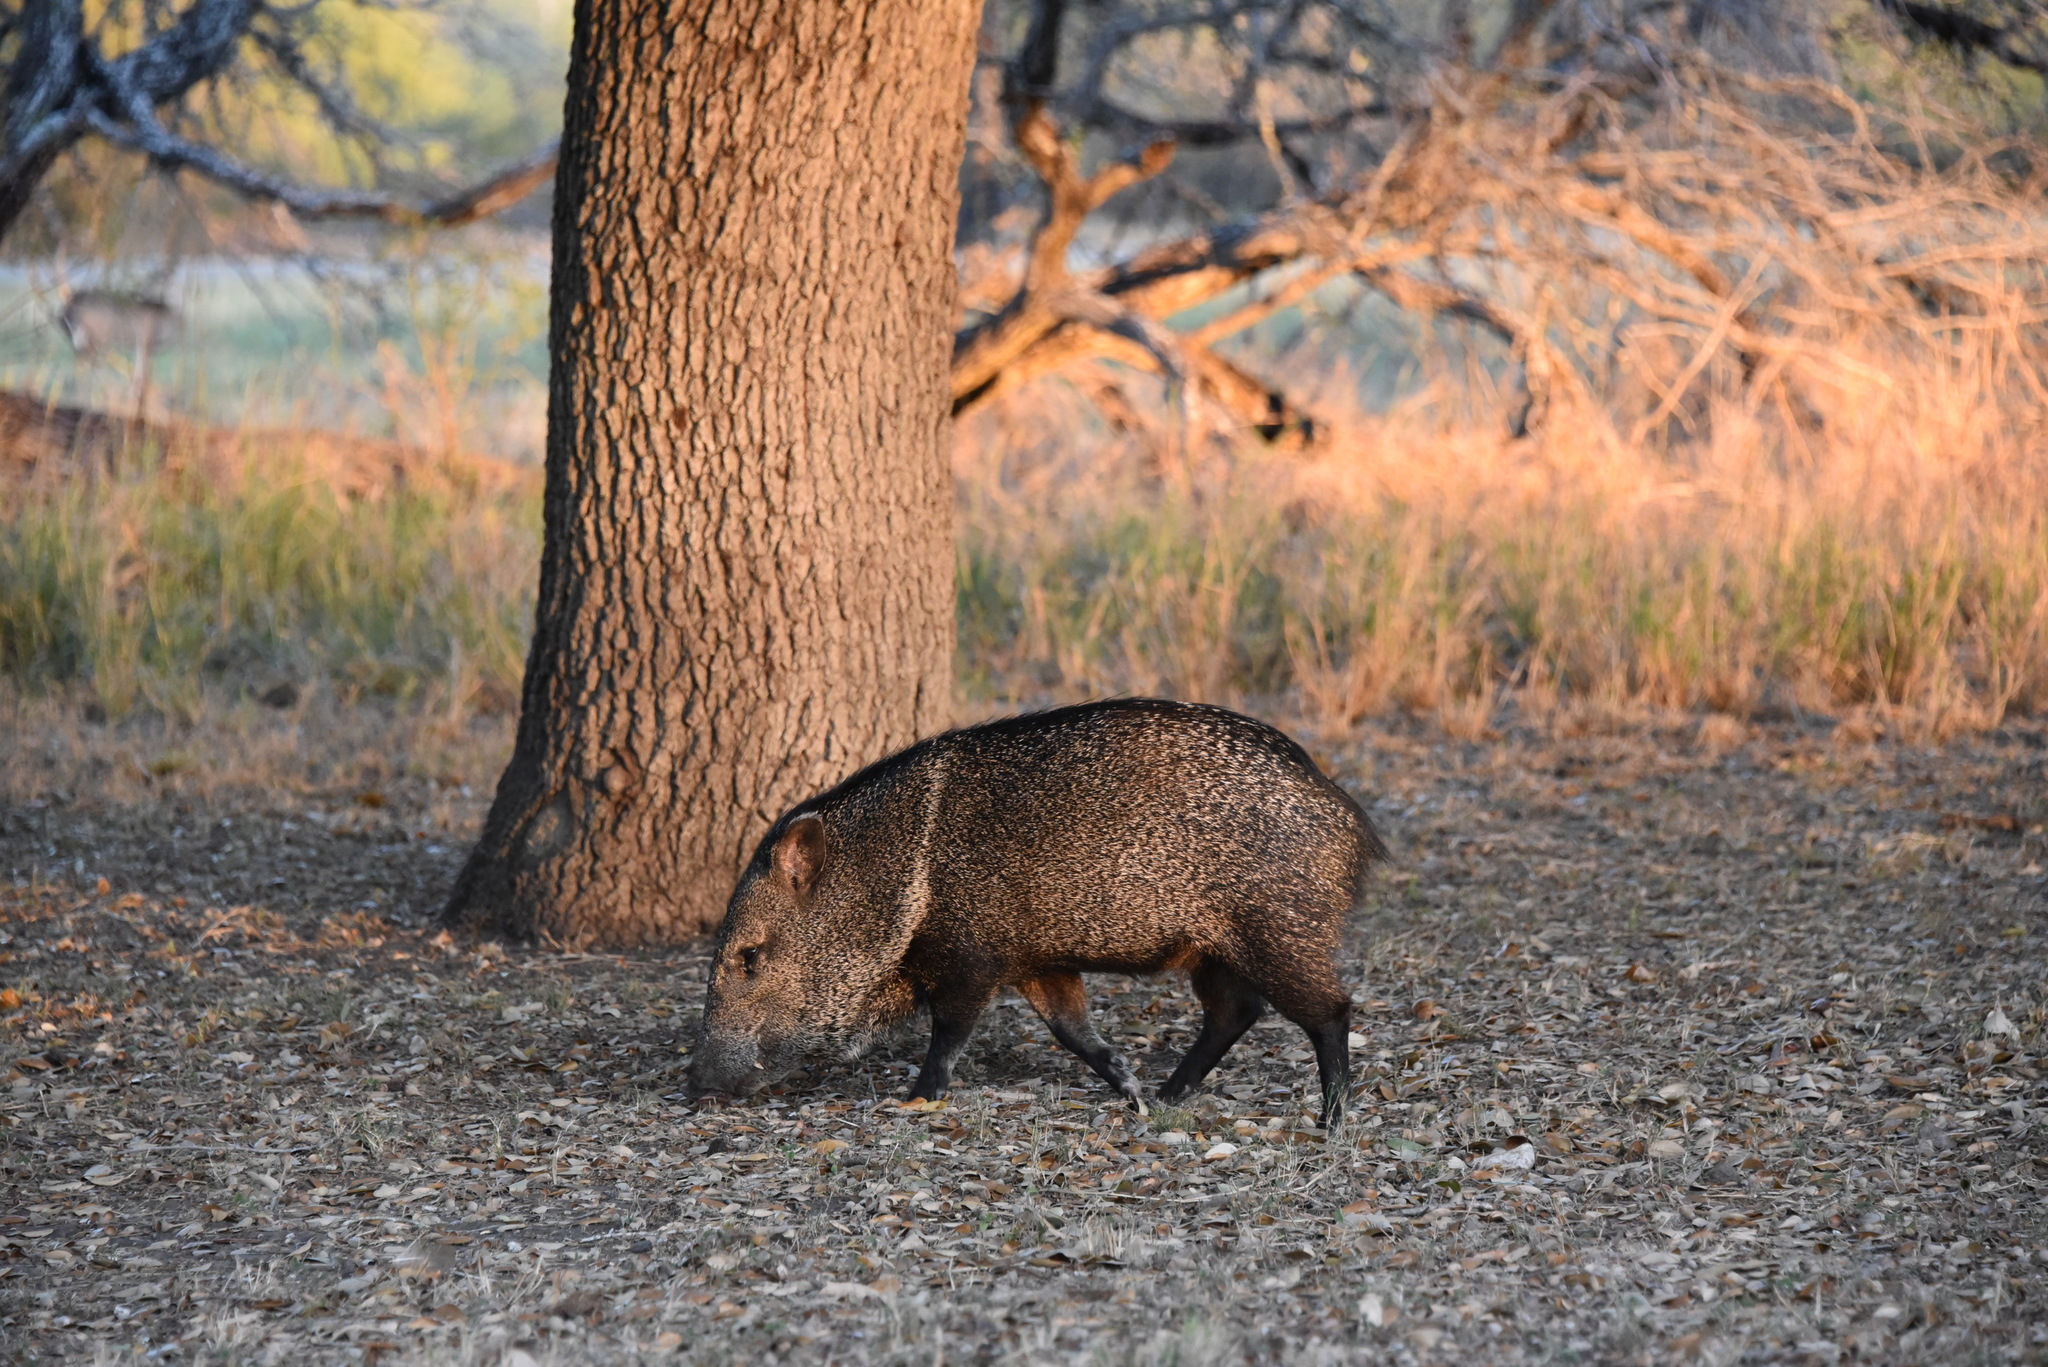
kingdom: Animalia
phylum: Chordata
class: Mammalia
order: Artiodactyla
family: Tayassuidae
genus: Pecari
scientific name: Pecari tajacu
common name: Collared peccary
